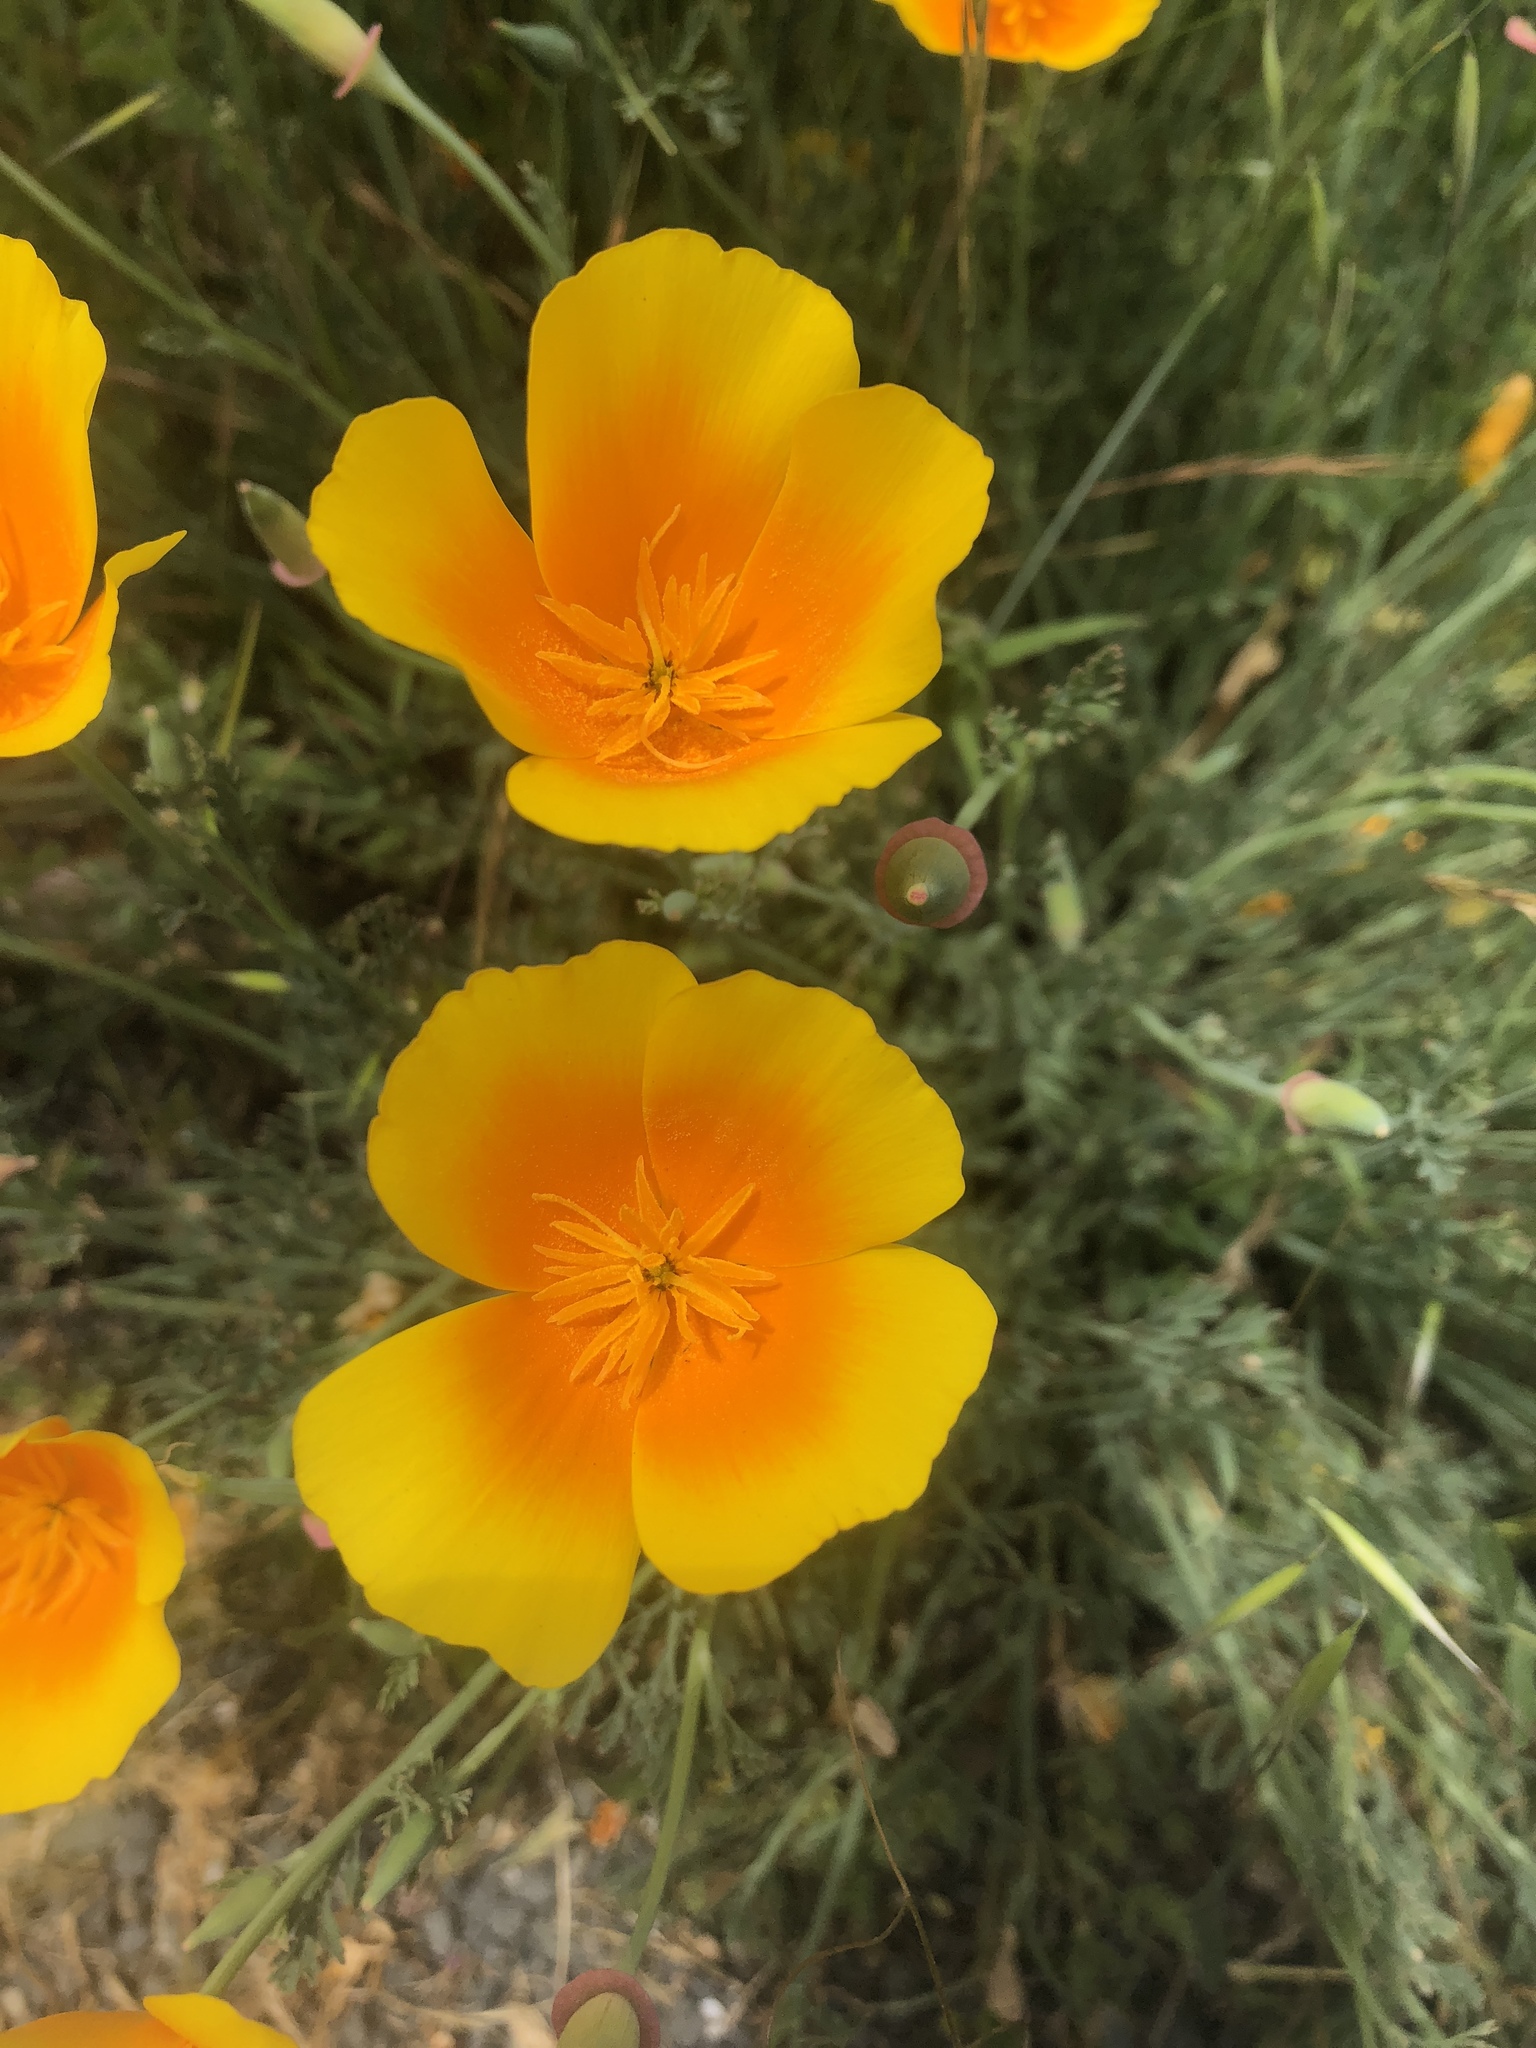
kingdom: Plantae
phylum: Tracheophyta
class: Magnoliopsida
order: Ranunculales
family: Papaveraceae
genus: Eschscholzia
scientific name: Eschscholzia californica
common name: California poppy
